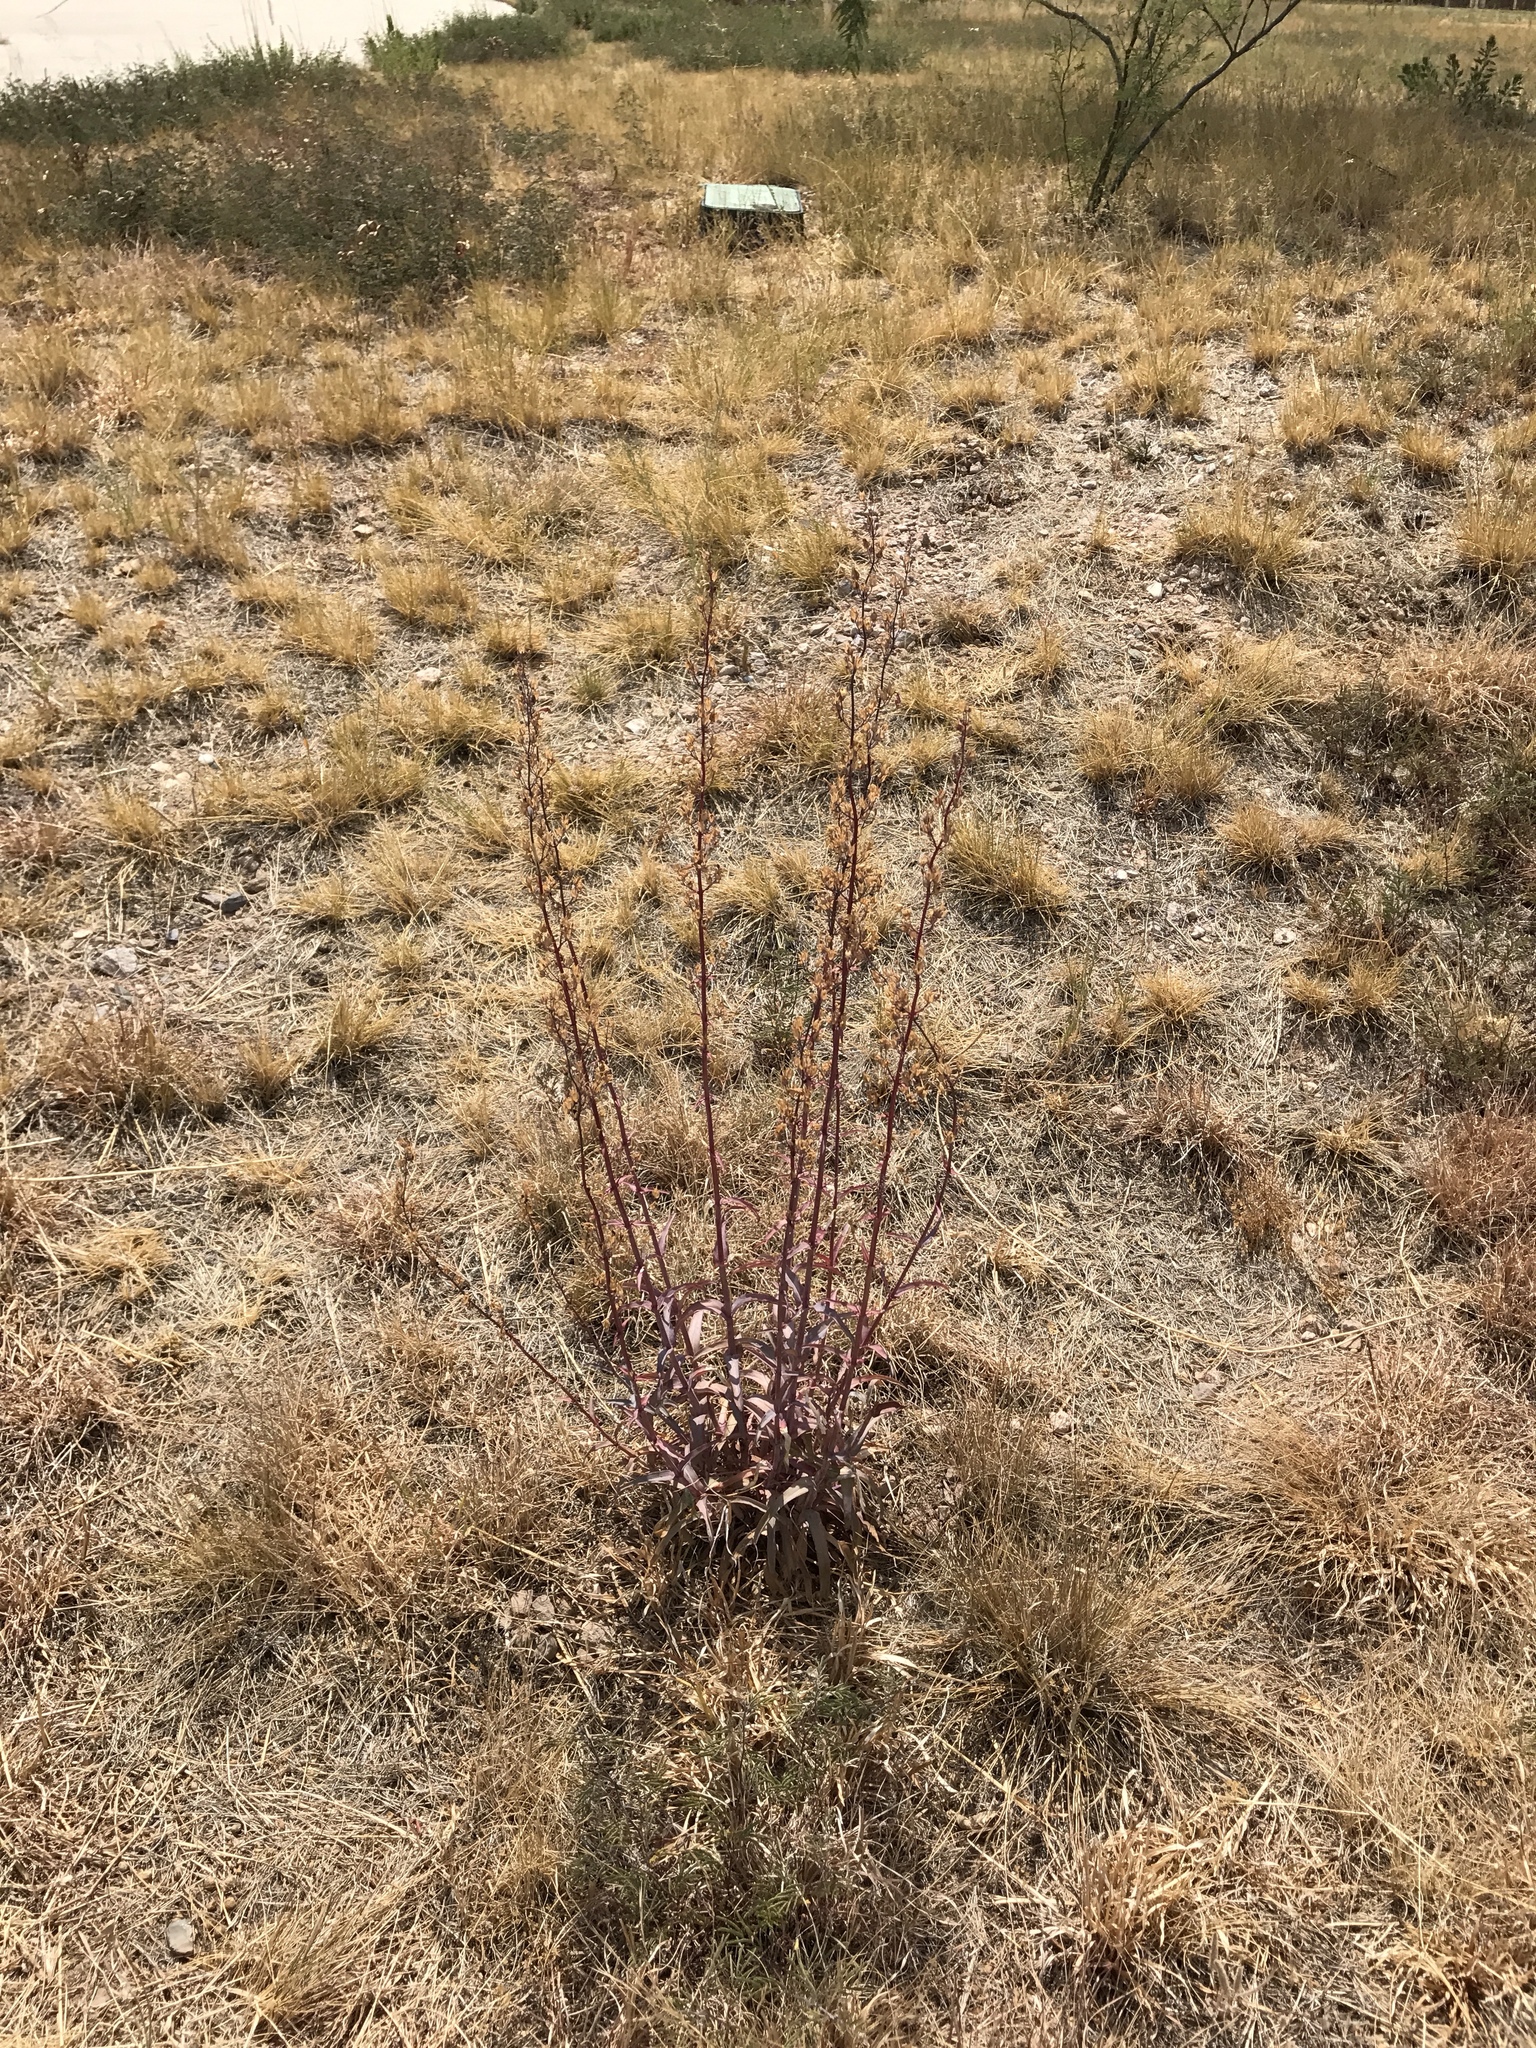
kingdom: Plantae
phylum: Tracheophyta
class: Magnoliopsida
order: Lamiales
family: Plantaginaceae
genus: Penstemon
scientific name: Penstemon parryi
